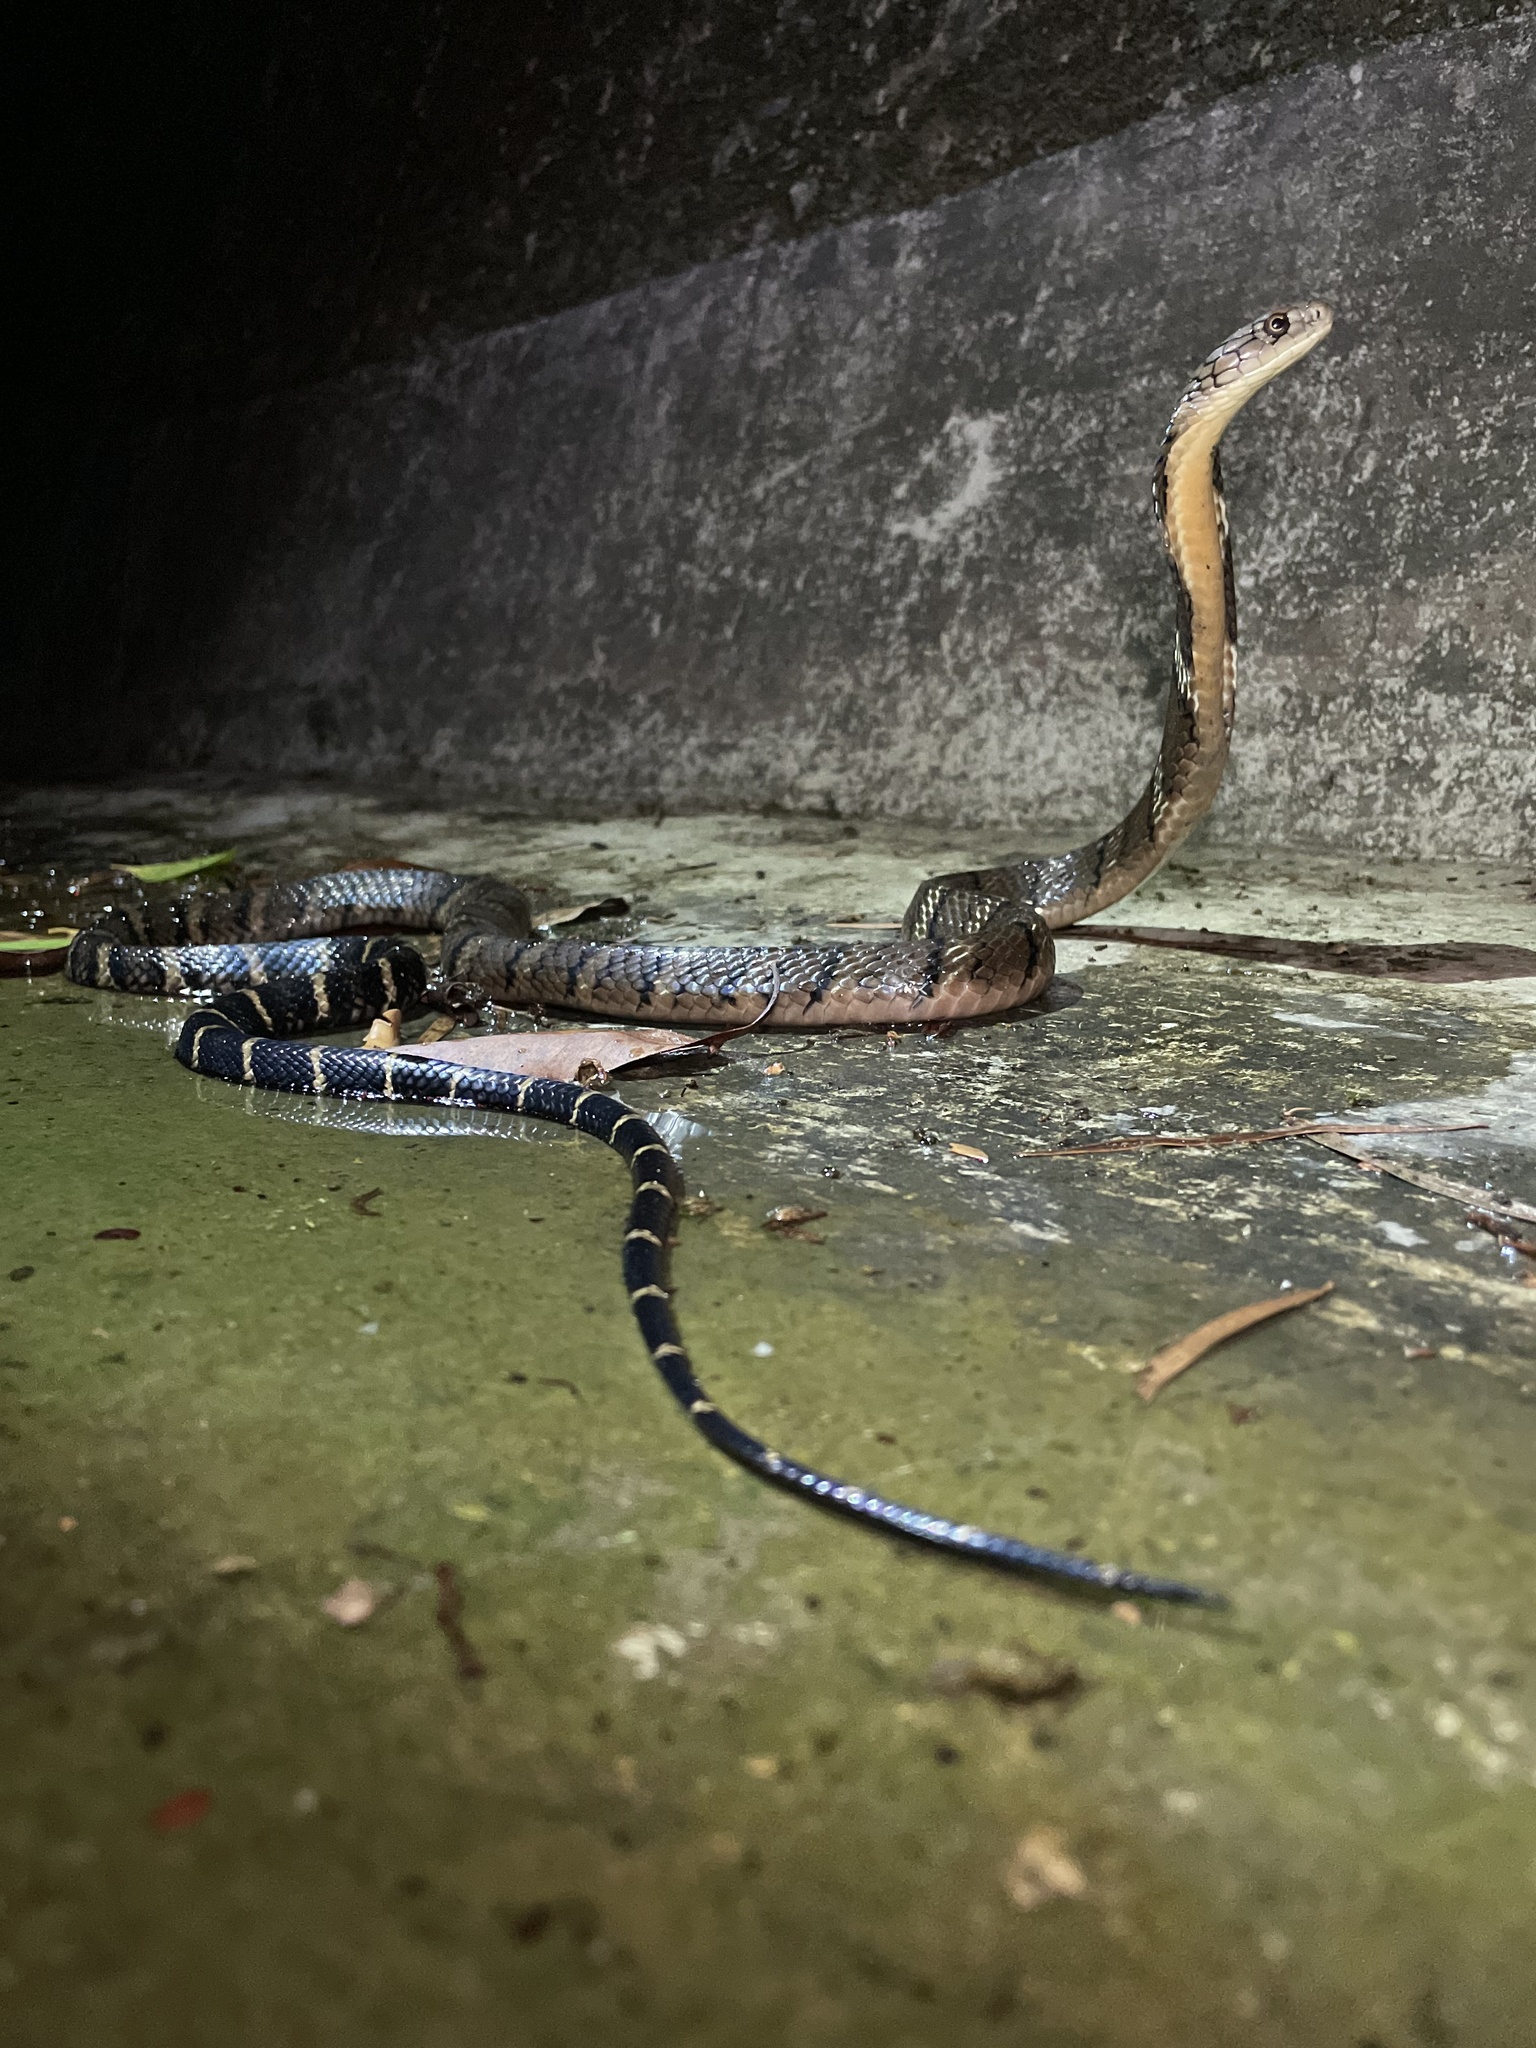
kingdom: Animalia
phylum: Chordata
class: Squamata
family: Elapidae
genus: Ophiophagus
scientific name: Ophiophagus hannah
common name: Hamadryad
